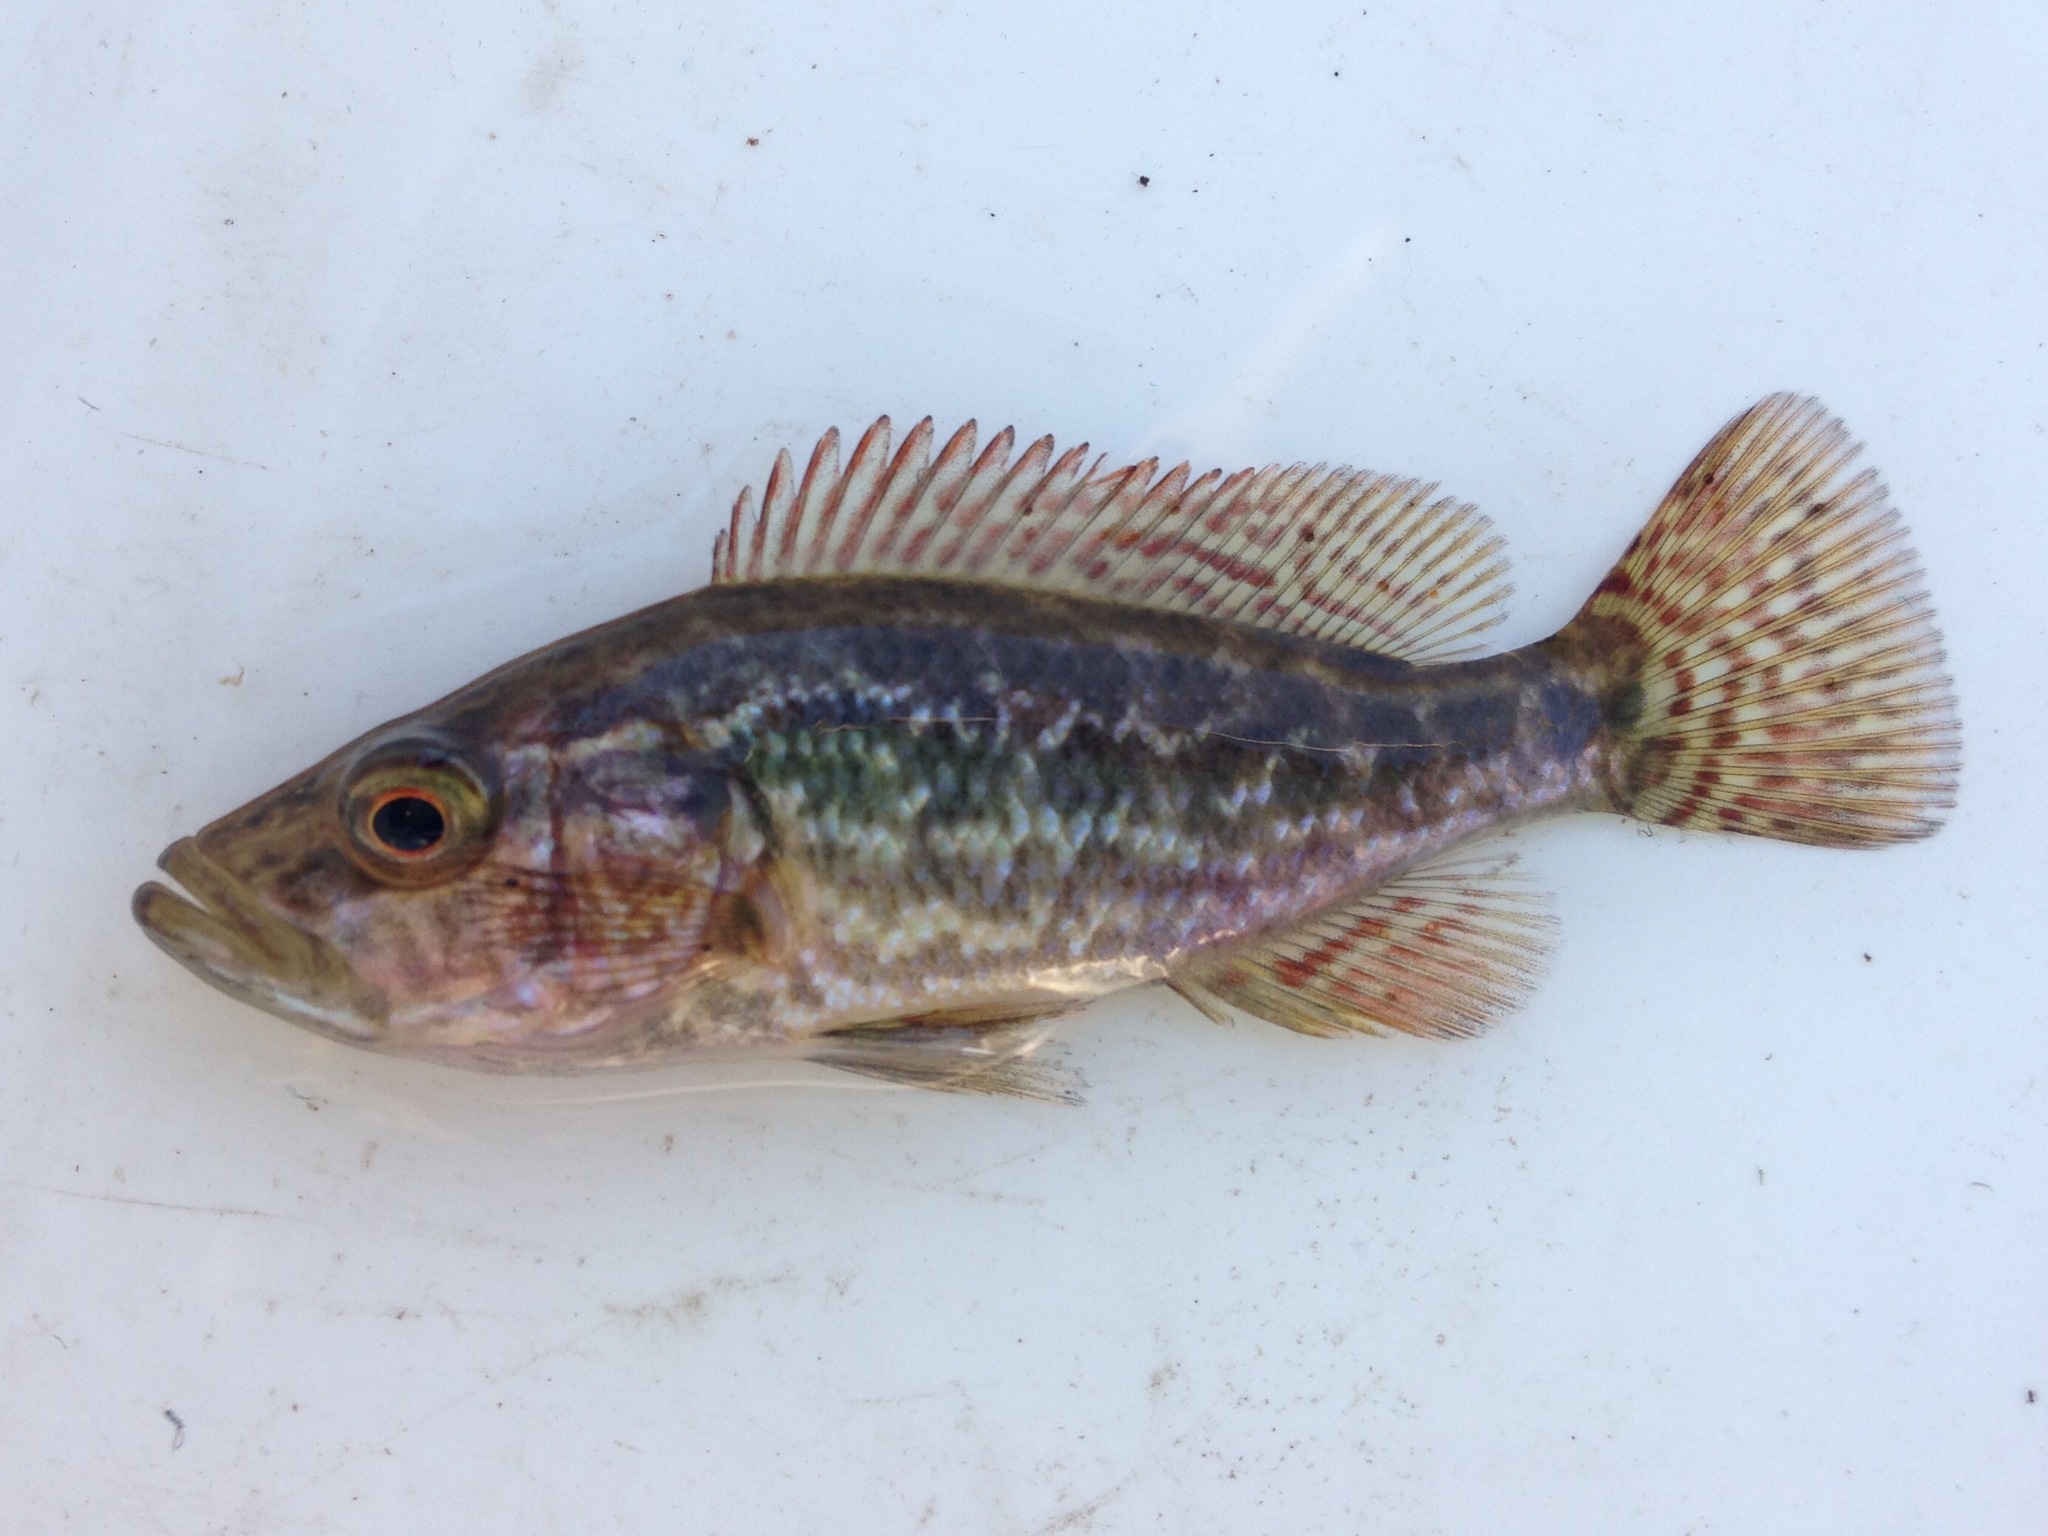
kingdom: Animalia
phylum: Chordata
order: Perciformes
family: Cichlidae
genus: Serranochromis
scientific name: Serranochromis angusticeps
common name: Thinface largemouth
